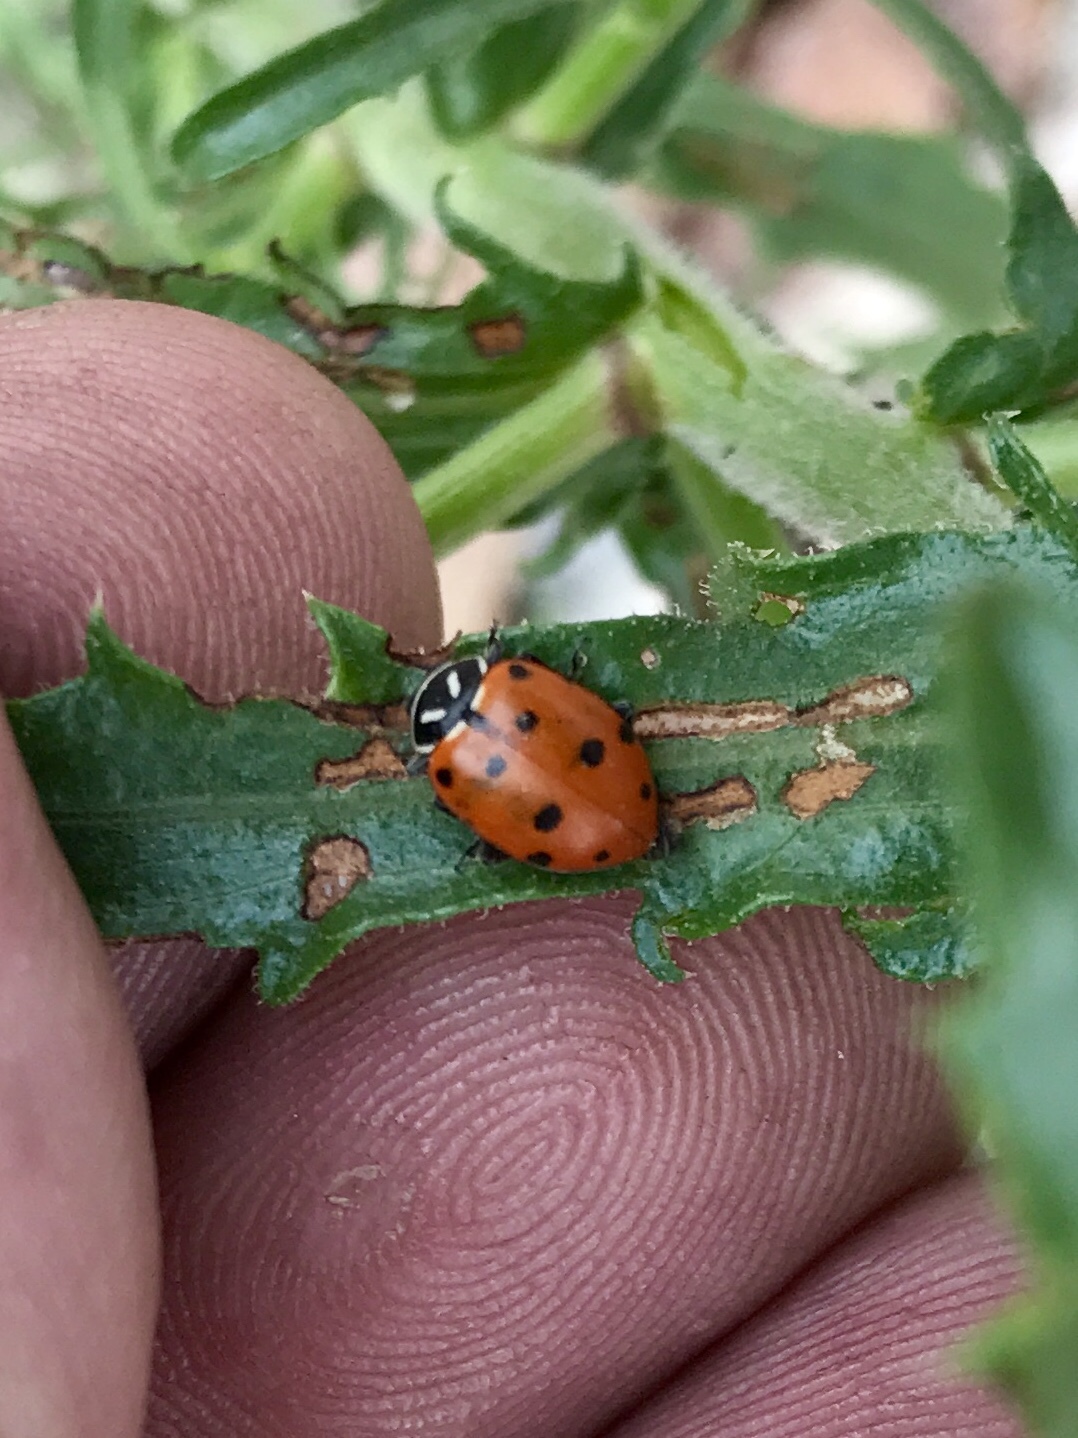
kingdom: Animalia
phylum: Arthropoda
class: Insecta
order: Coleoptera
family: Coccinellidae
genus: Hippodamia
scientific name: Hippodamia convergens
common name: Convergent lady beetle
